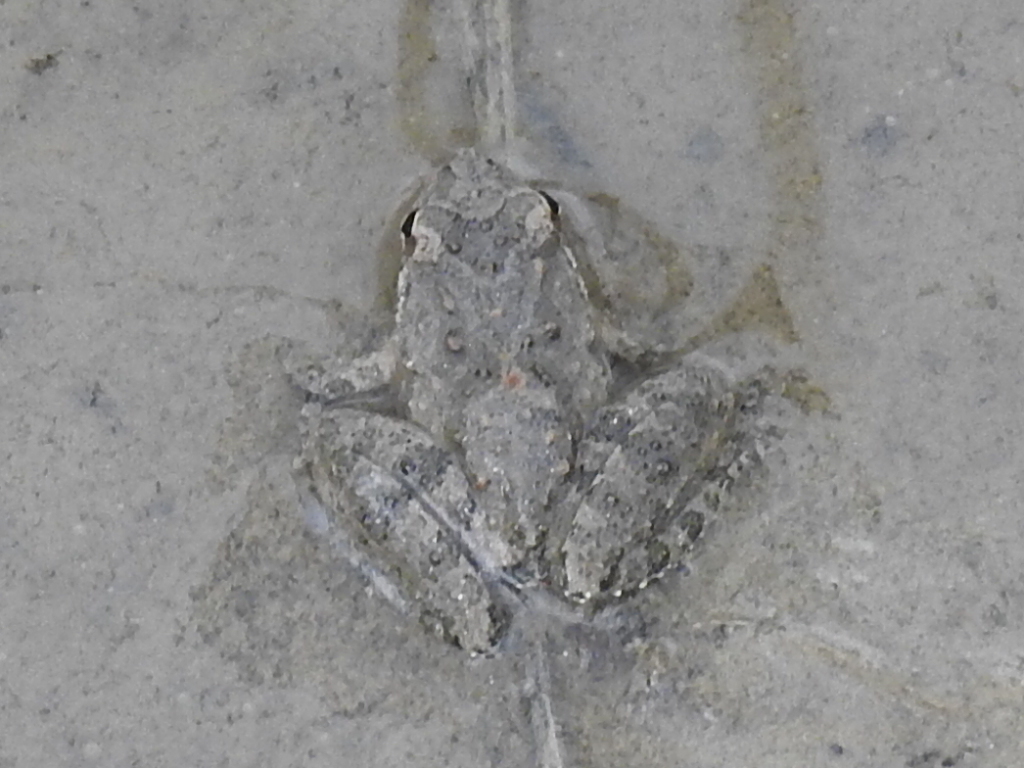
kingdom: Animalia
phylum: Chordata
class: Amphibia
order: Anura
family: Hylidae
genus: Acris
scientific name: Acris blanchardi
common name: Blanchard's cricket frog
